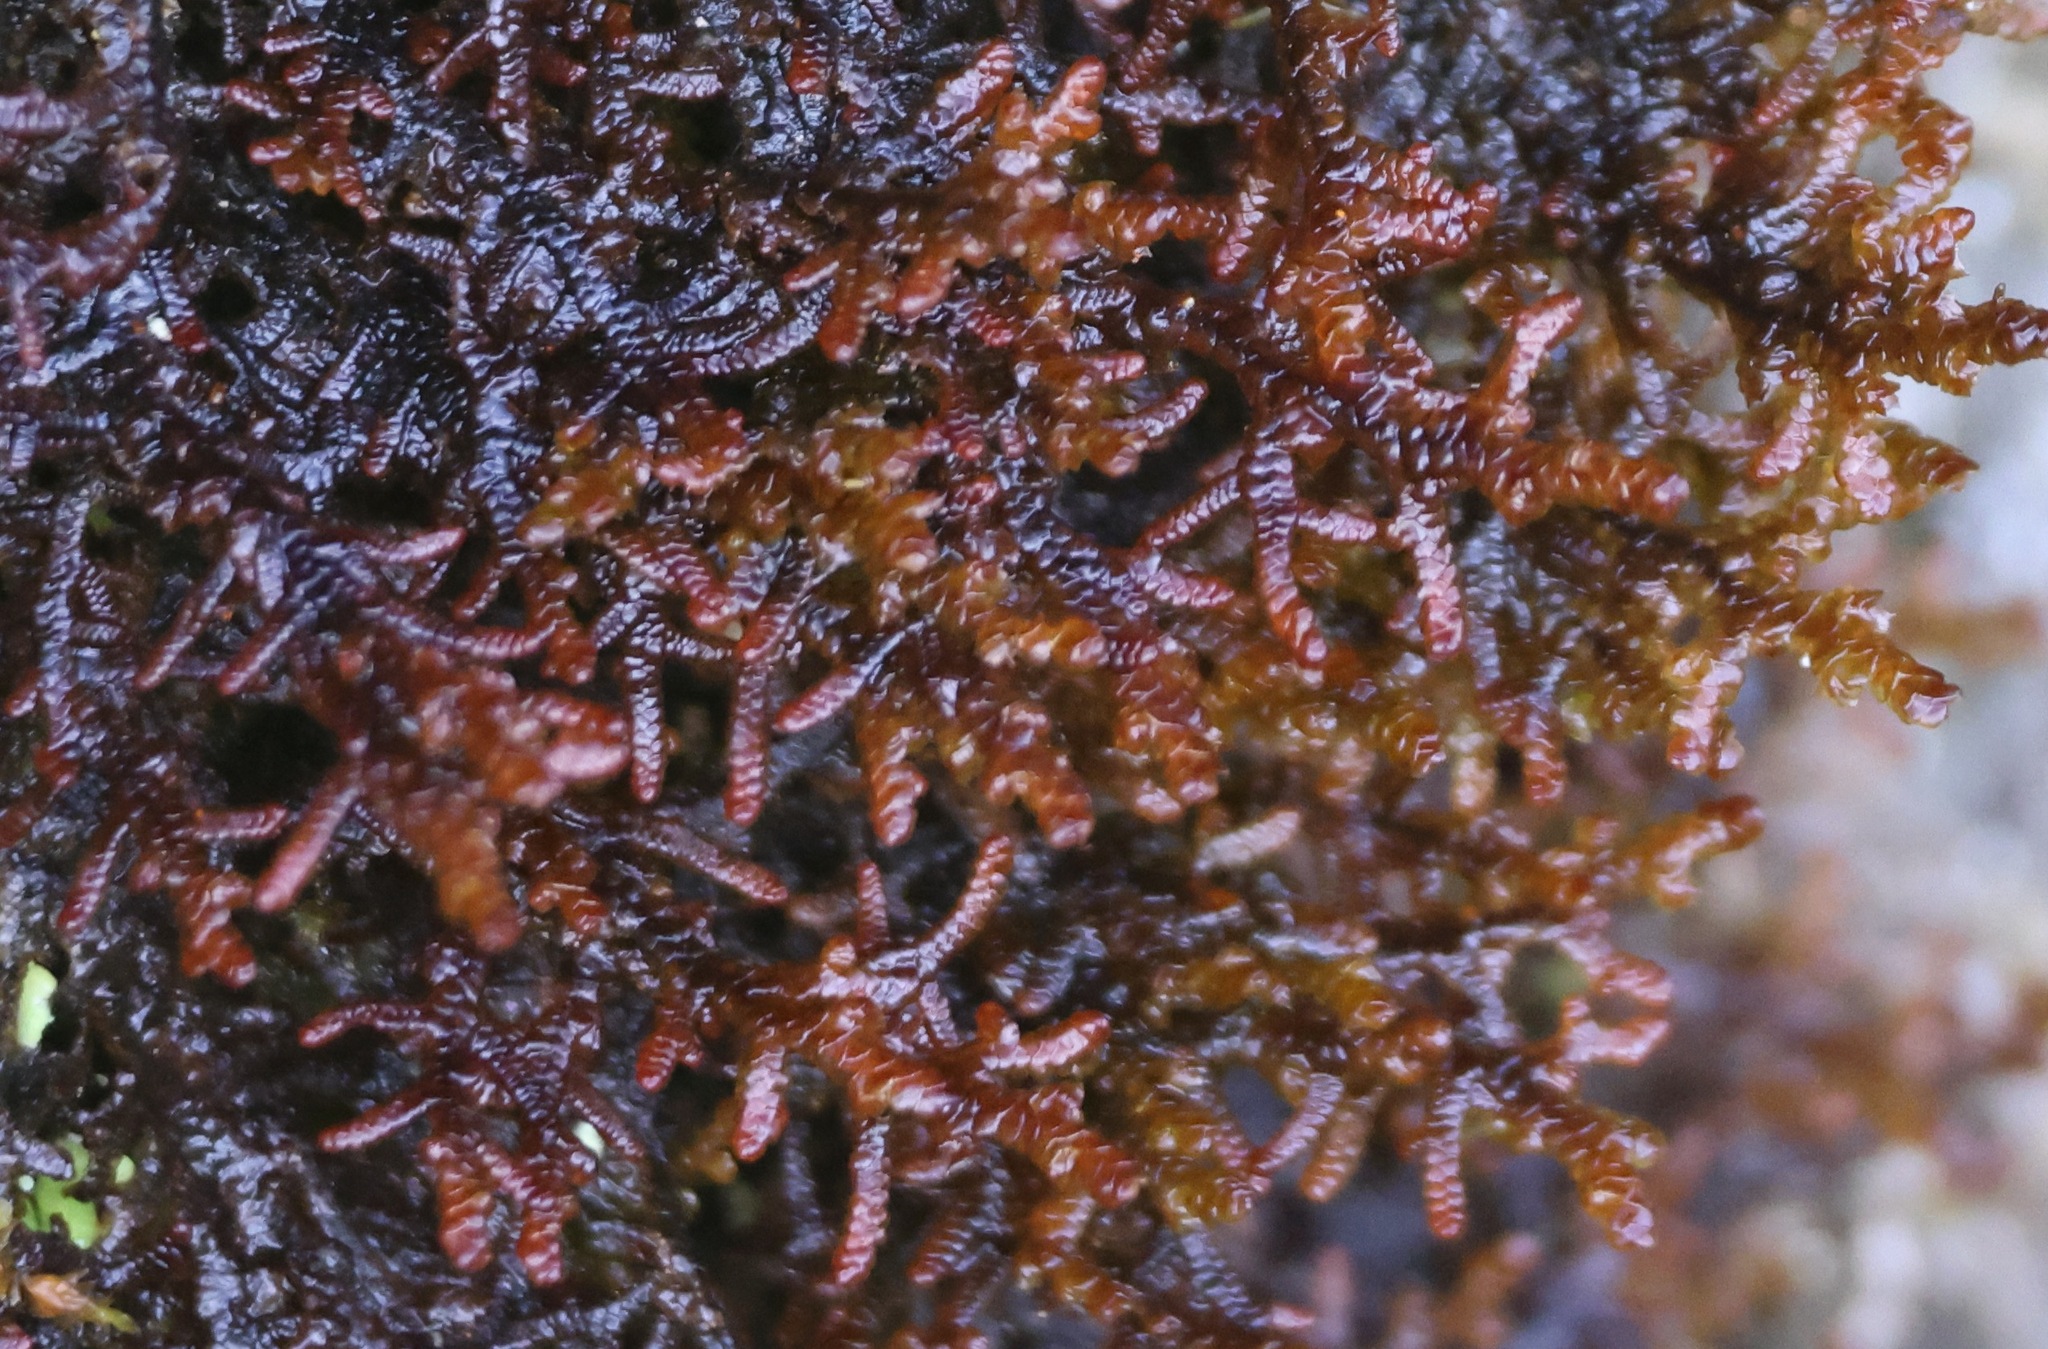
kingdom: Plantae
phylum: Marchantiophyta
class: Jungermanniopsida
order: Porellales
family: Frullaniaceae
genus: Frullania
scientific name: Frullania tamarisci
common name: Tamarisk scalewort
